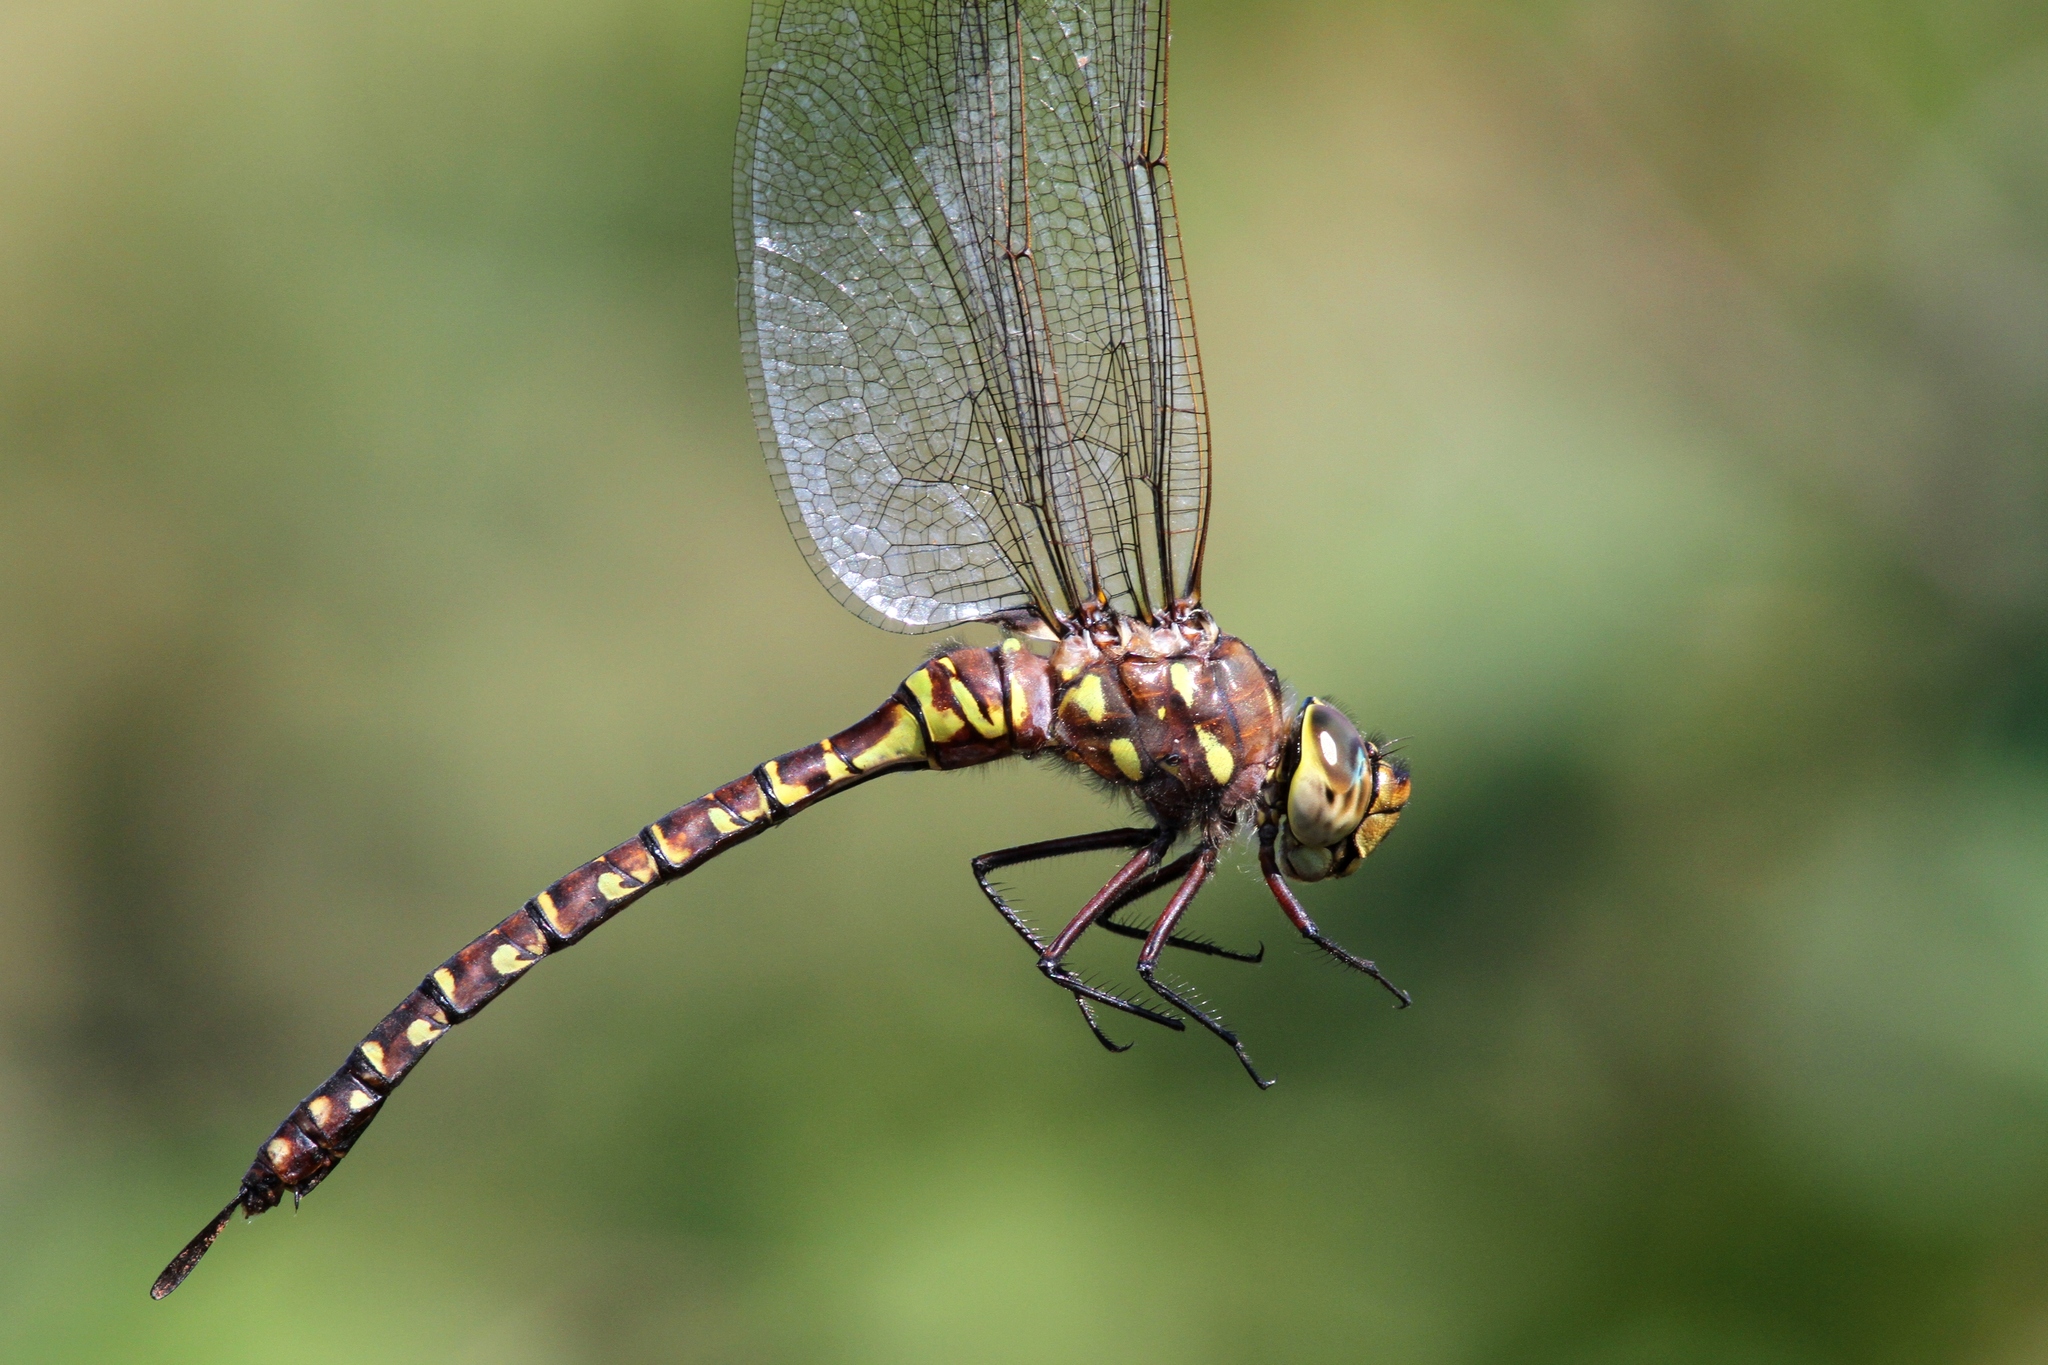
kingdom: Animalia
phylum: Arthropoda
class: Insecta
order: Odonata
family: Aeshnidae
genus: Aeshna
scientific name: Aeshna interrupta
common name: Variable darner
